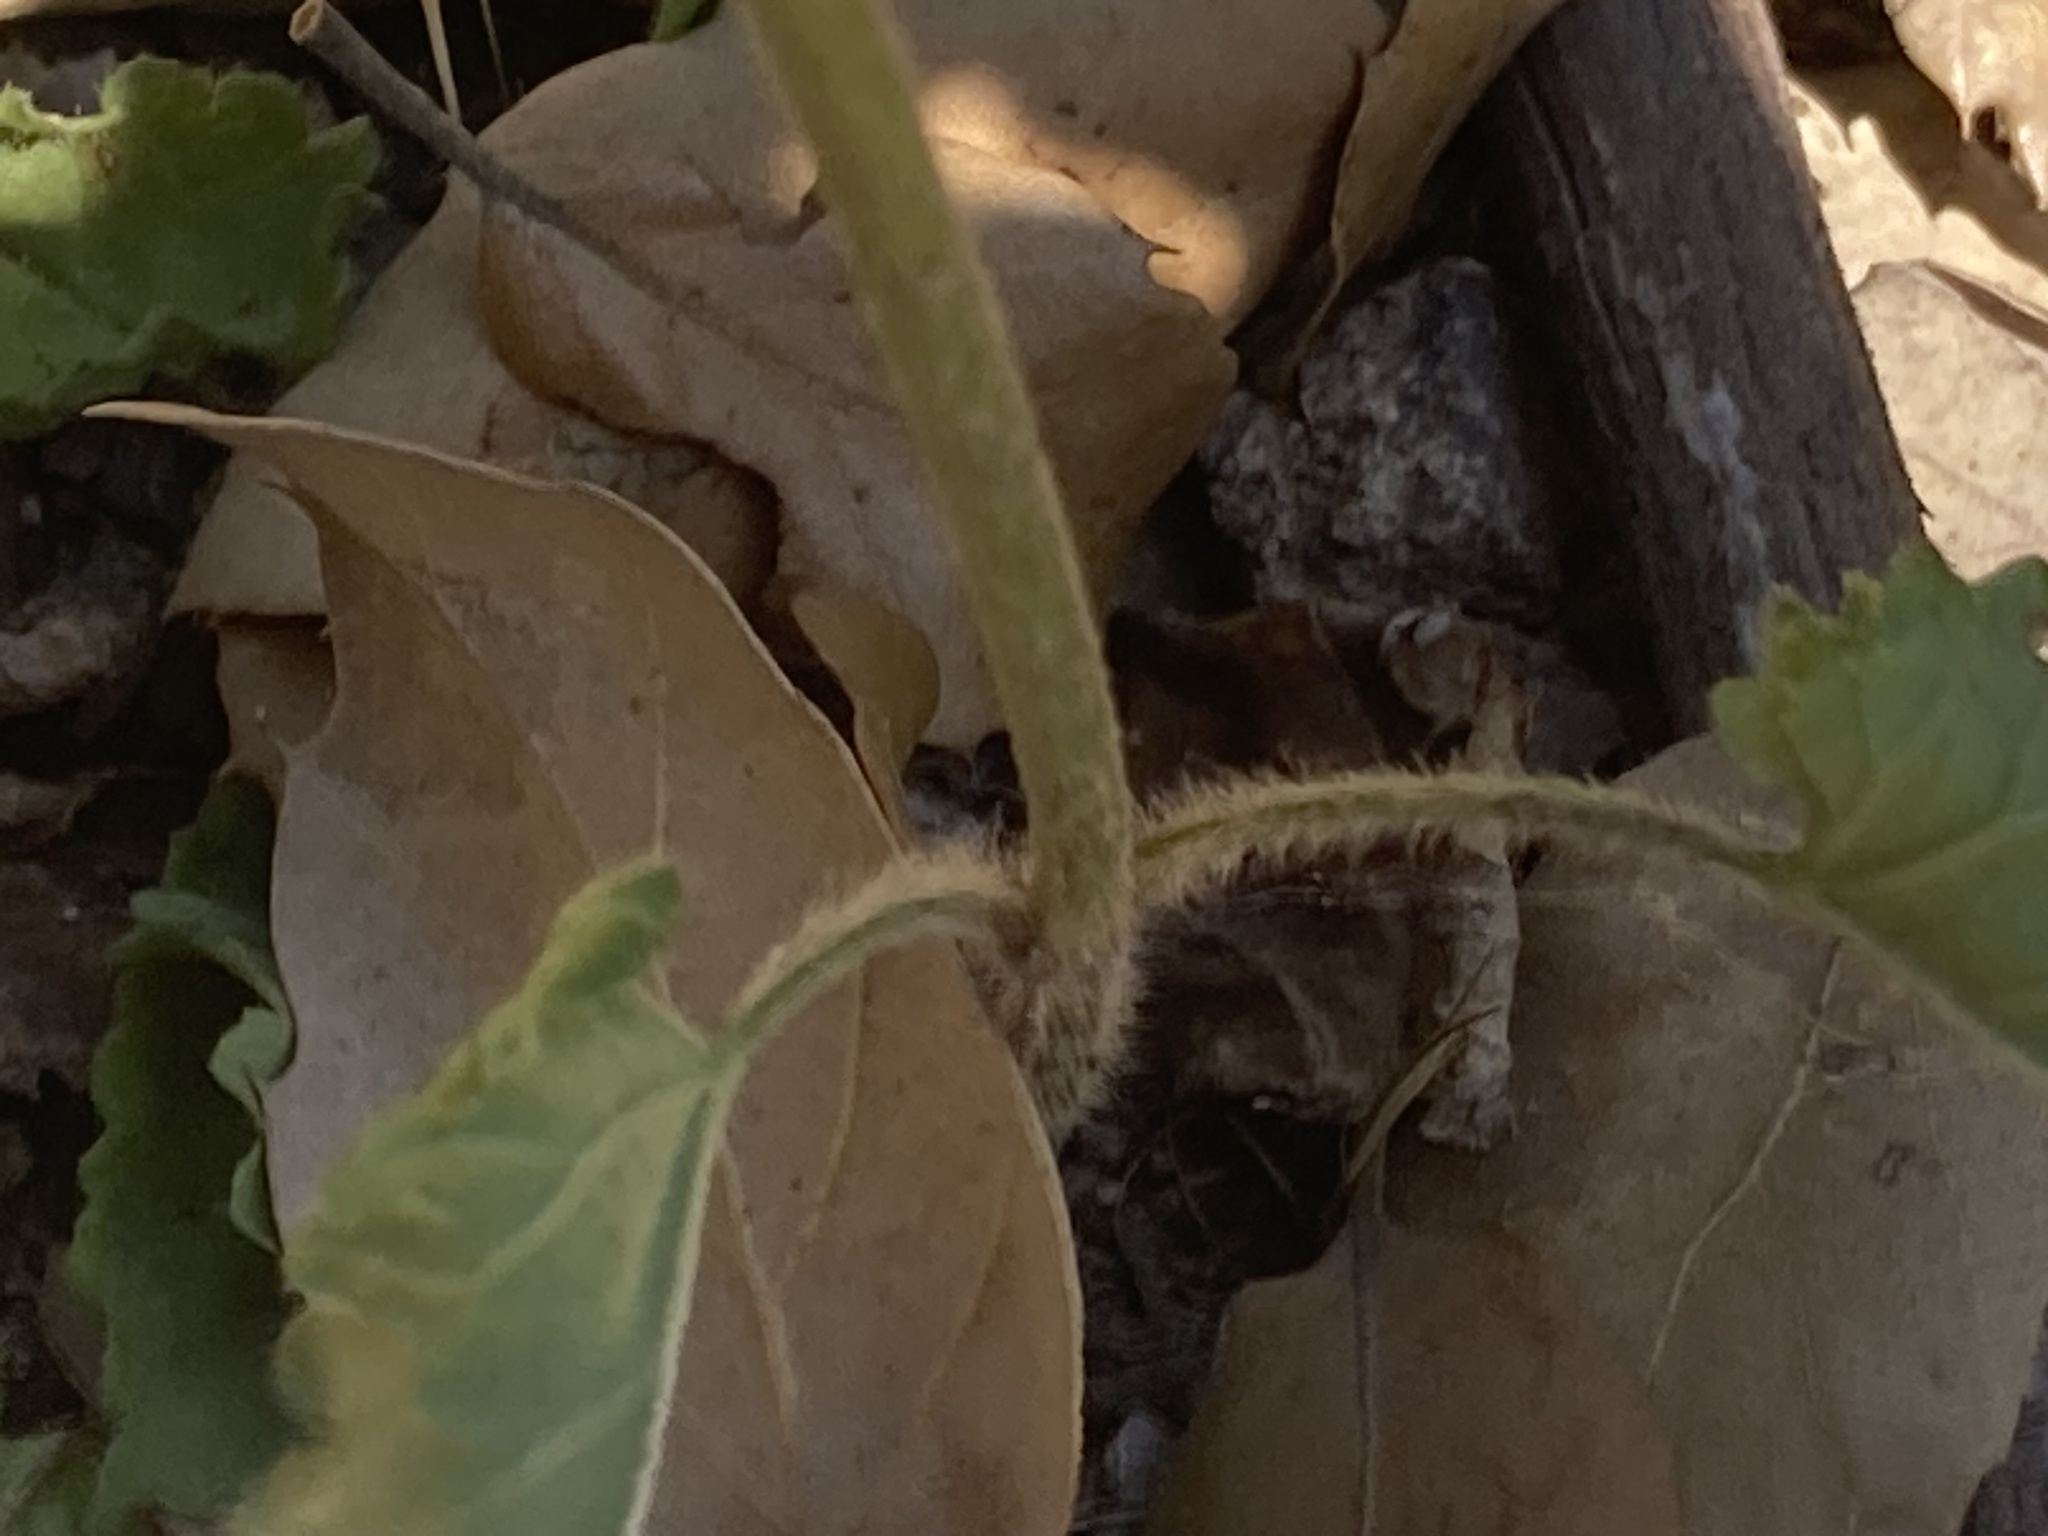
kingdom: Plantae
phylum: Tracheophyta
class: Magnoliopsida
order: Lamiales
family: Lamiaceae
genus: Betonica
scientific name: Betonica officinalis
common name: Bishop's-wort
